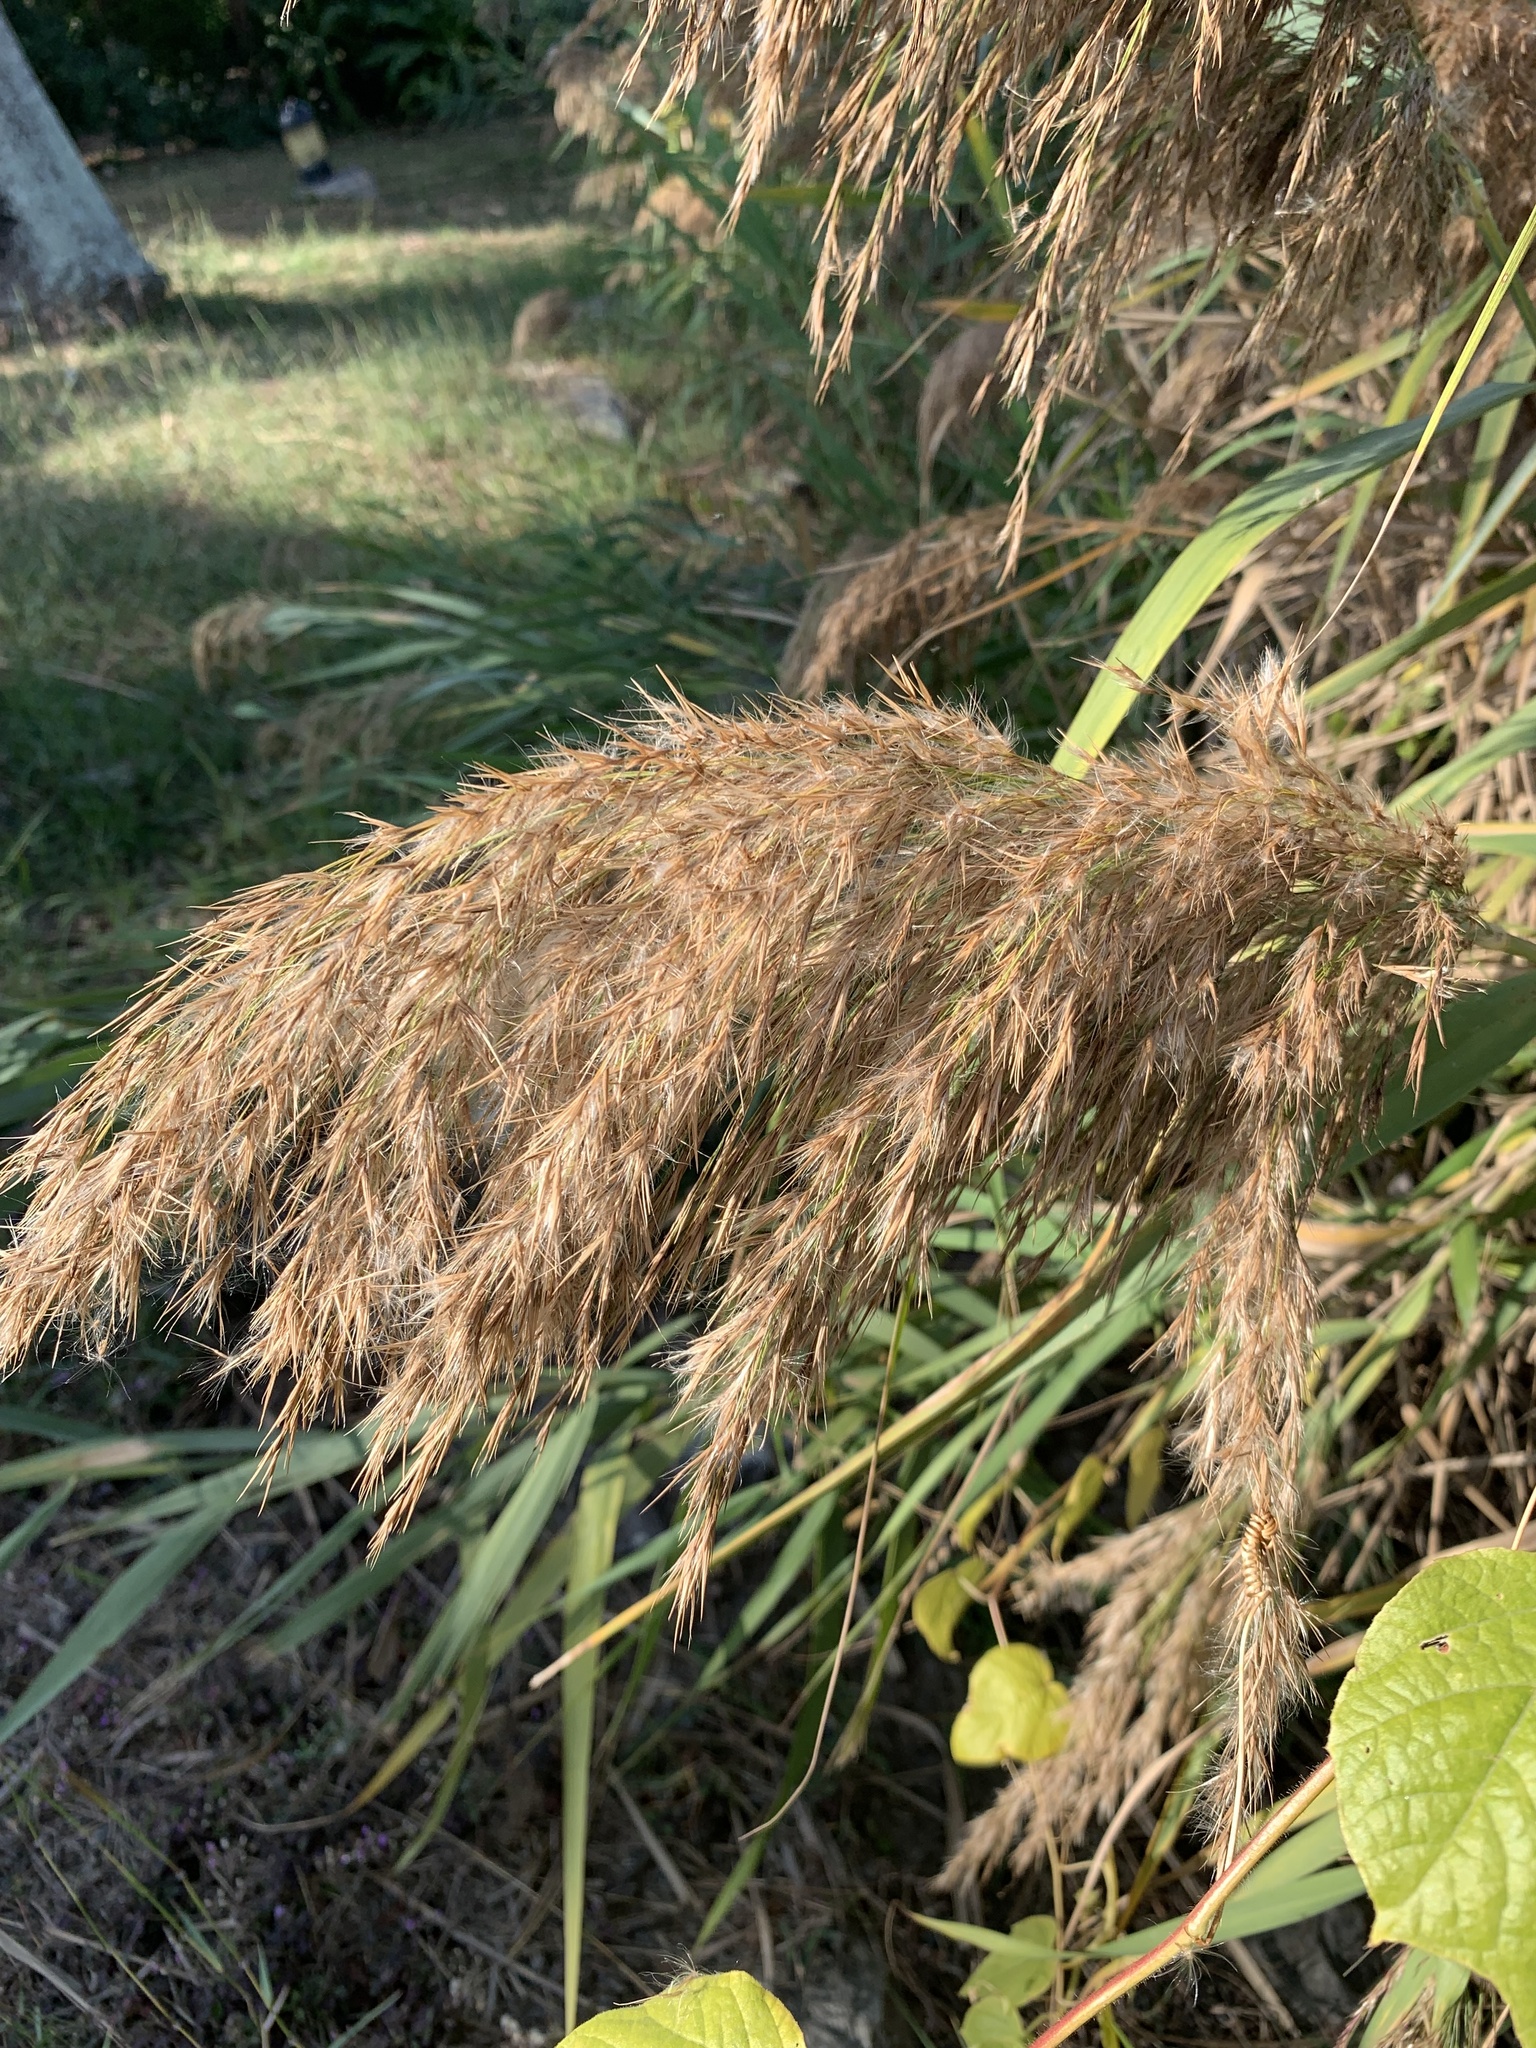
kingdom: Plantae
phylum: Tracheophyta
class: Liliopsida
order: Poales
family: Poaceae
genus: Phragmites
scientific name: Phragmites australis
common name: Common reed
